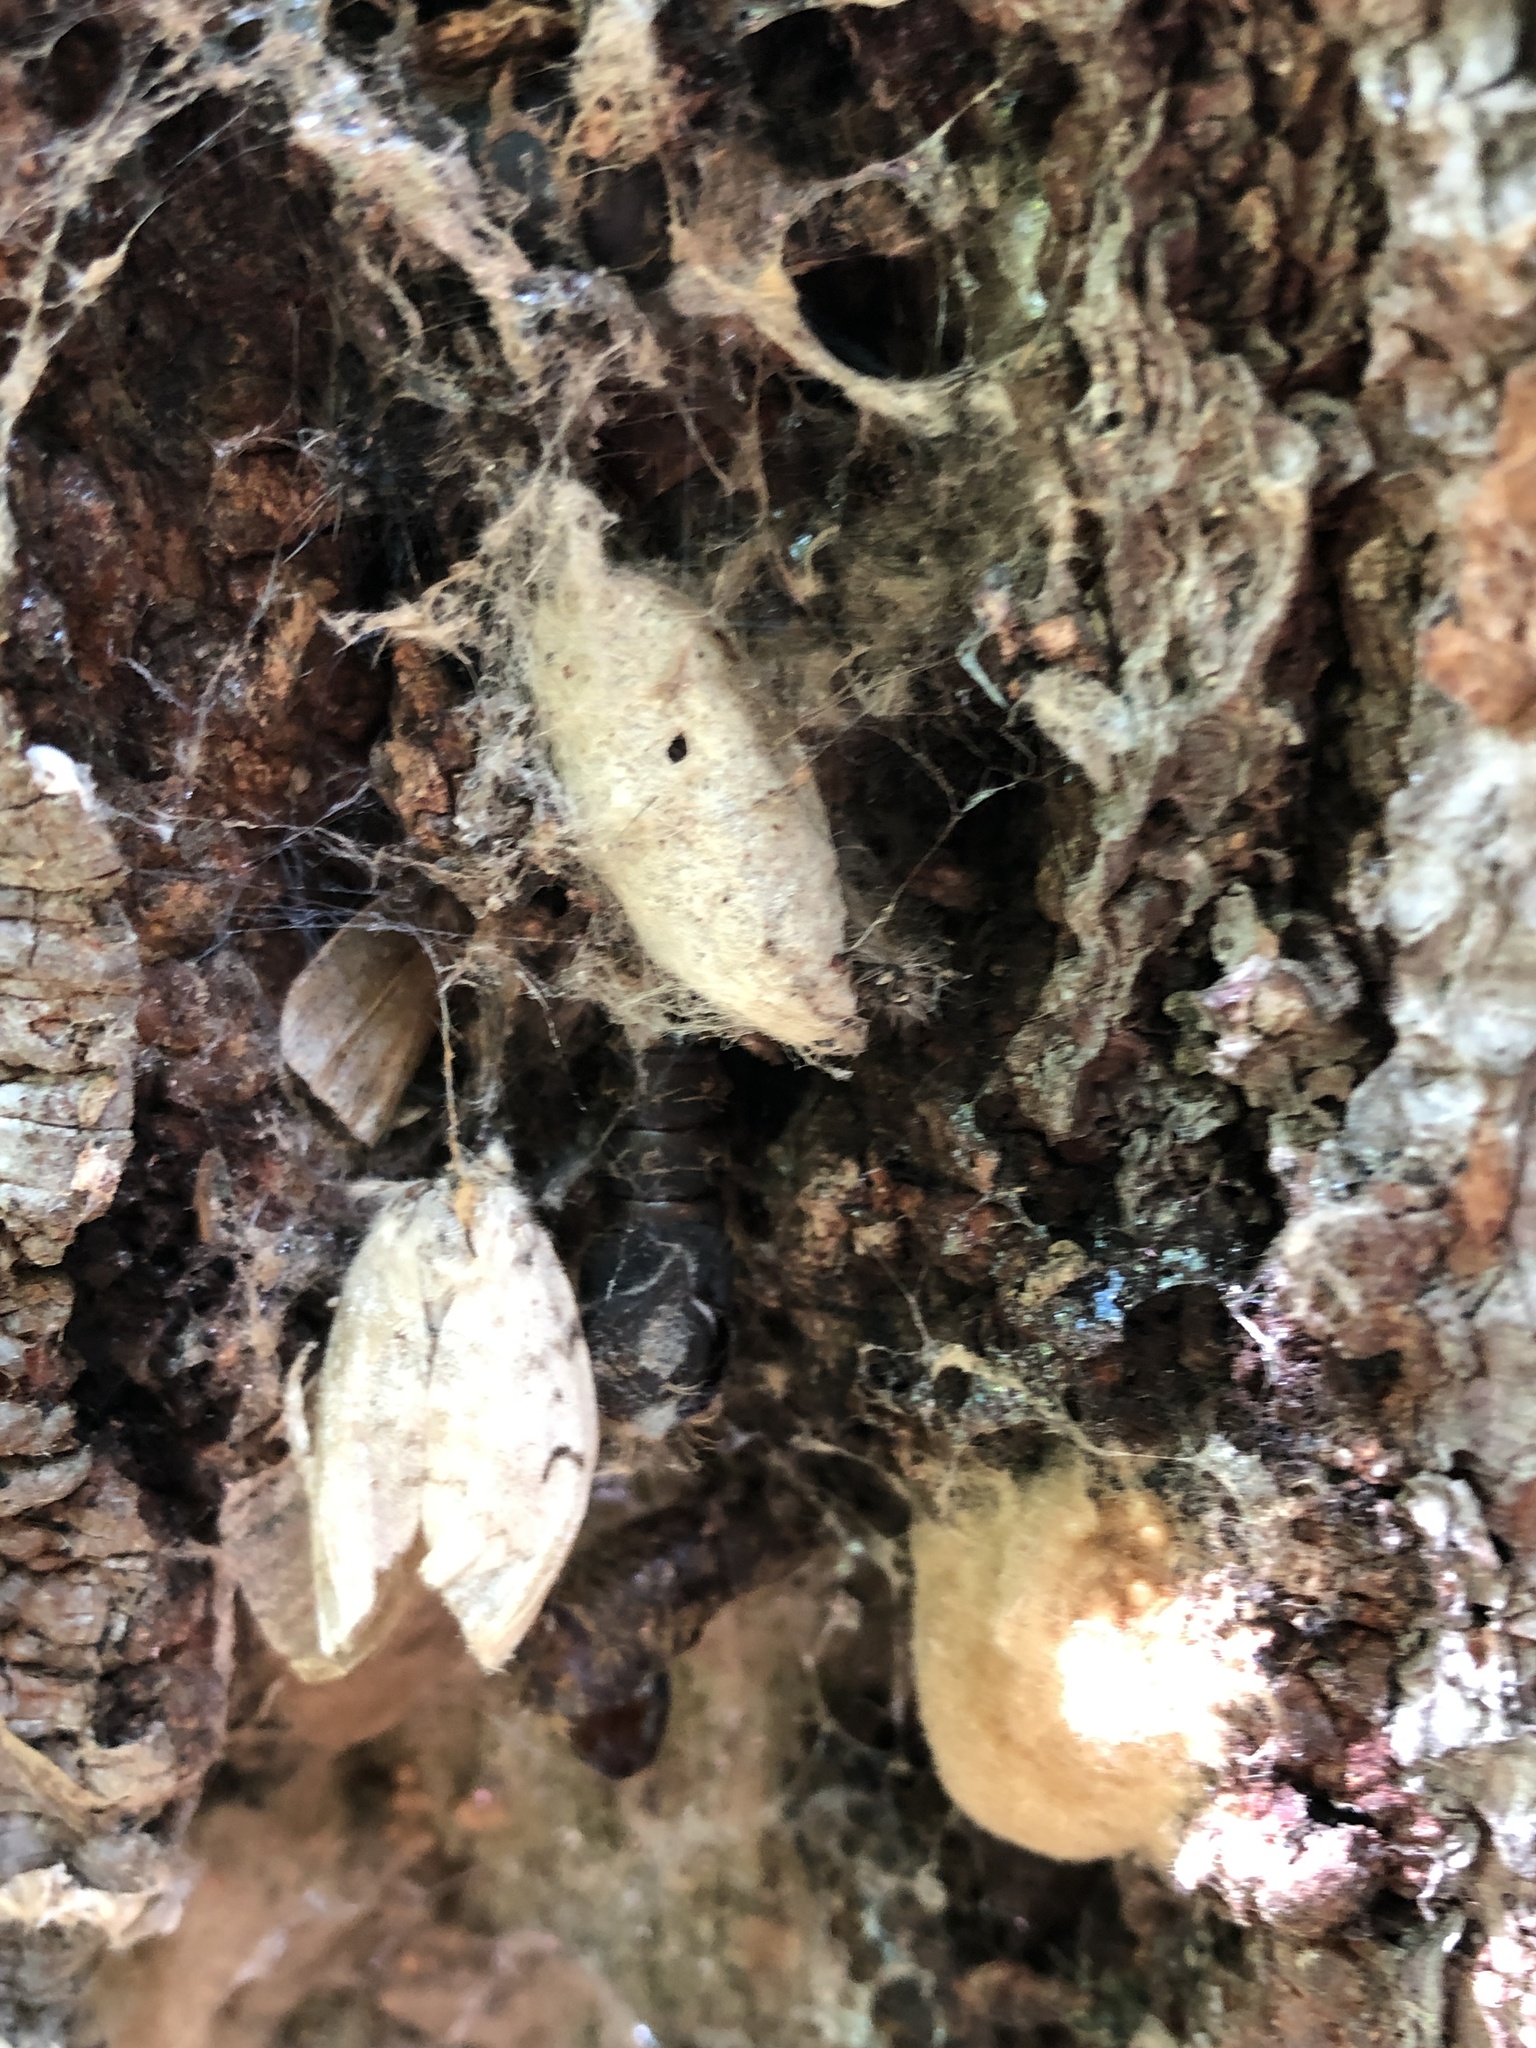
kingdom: Animalia
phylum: Arthropoda
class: Insecta
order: Lepidoptera
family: Erebidae
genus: Lymantria
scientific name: Lymantria dispar
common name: Gypsy moth
